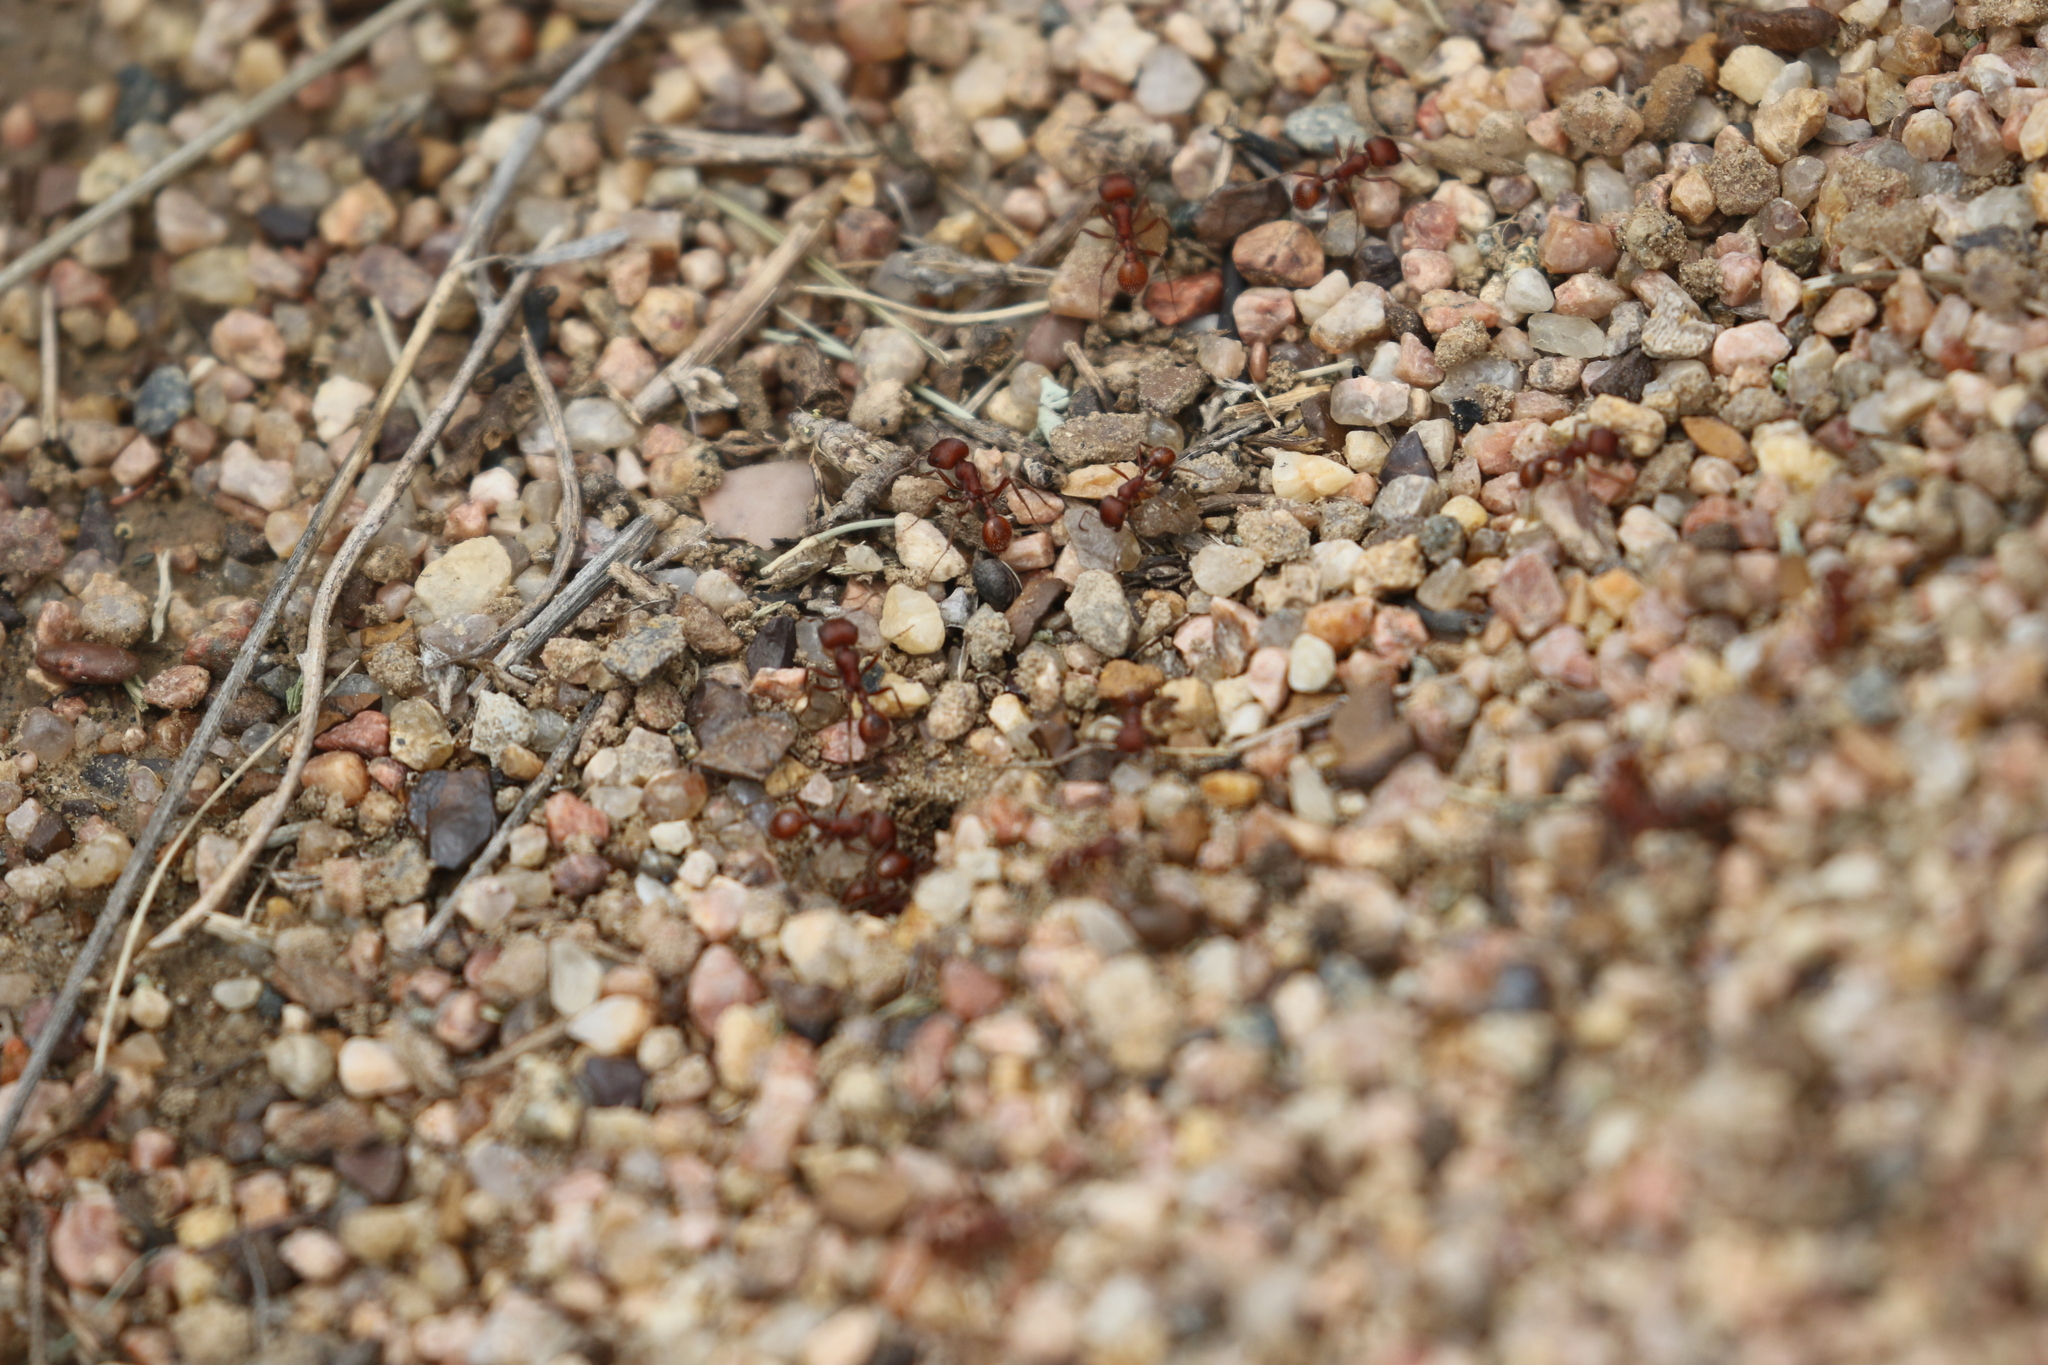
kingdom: Animalia
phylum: Arthropoda
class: Insecta
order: Hymenoptera
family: Formicidae
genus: Pogonomyrmex
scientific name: Pogonomyrmex occidentalis
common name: Western harvester ant
